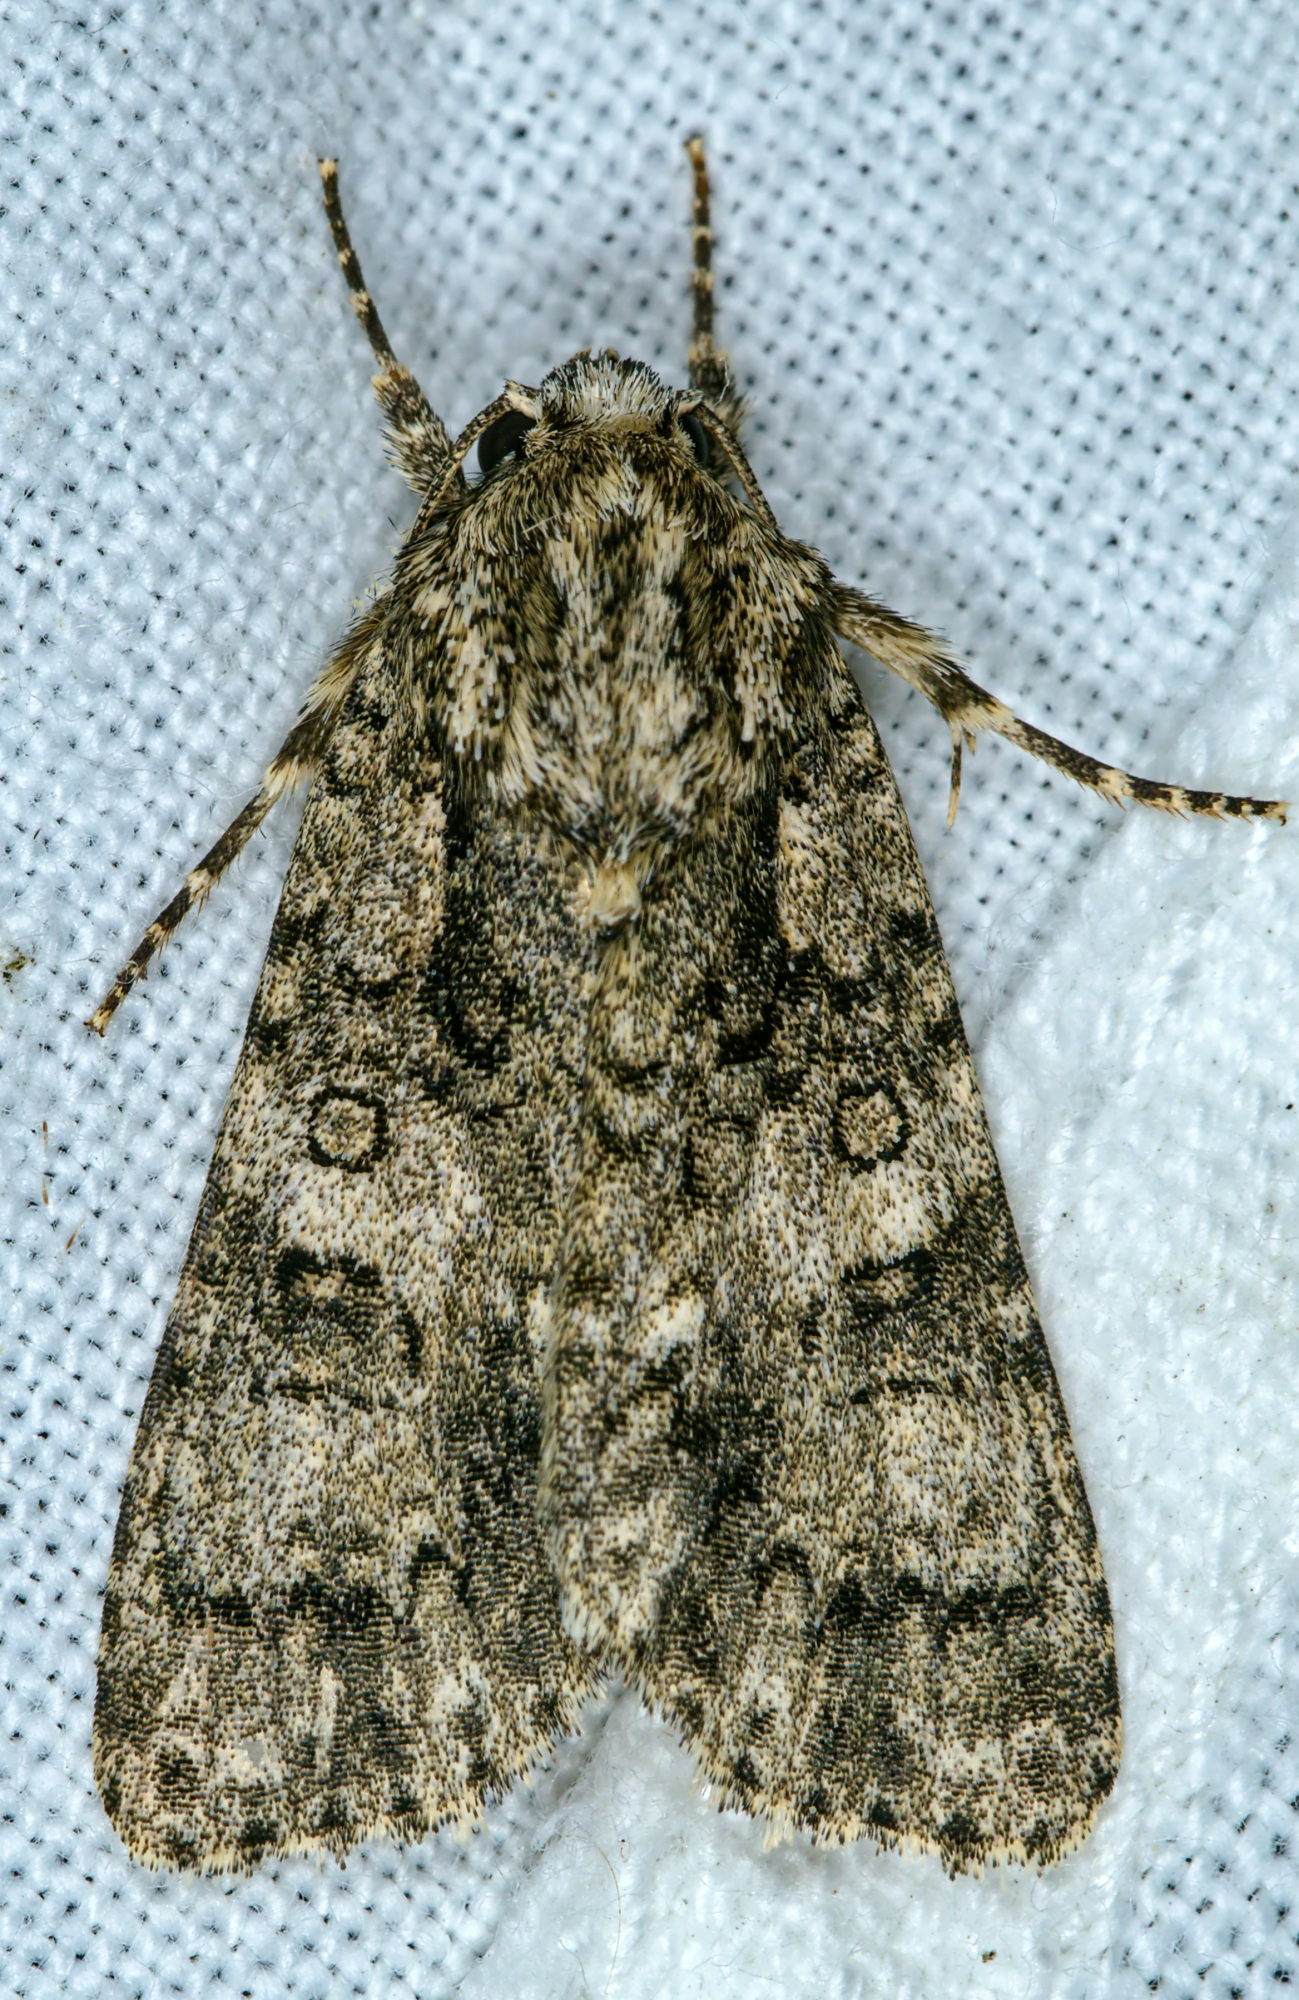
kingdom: Animalia
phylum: Arthropoda
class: Insecta
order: Lepidoptera
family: Noctuidae
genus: Acronicta
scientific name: Acronicta rumicis
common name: Knot grass
